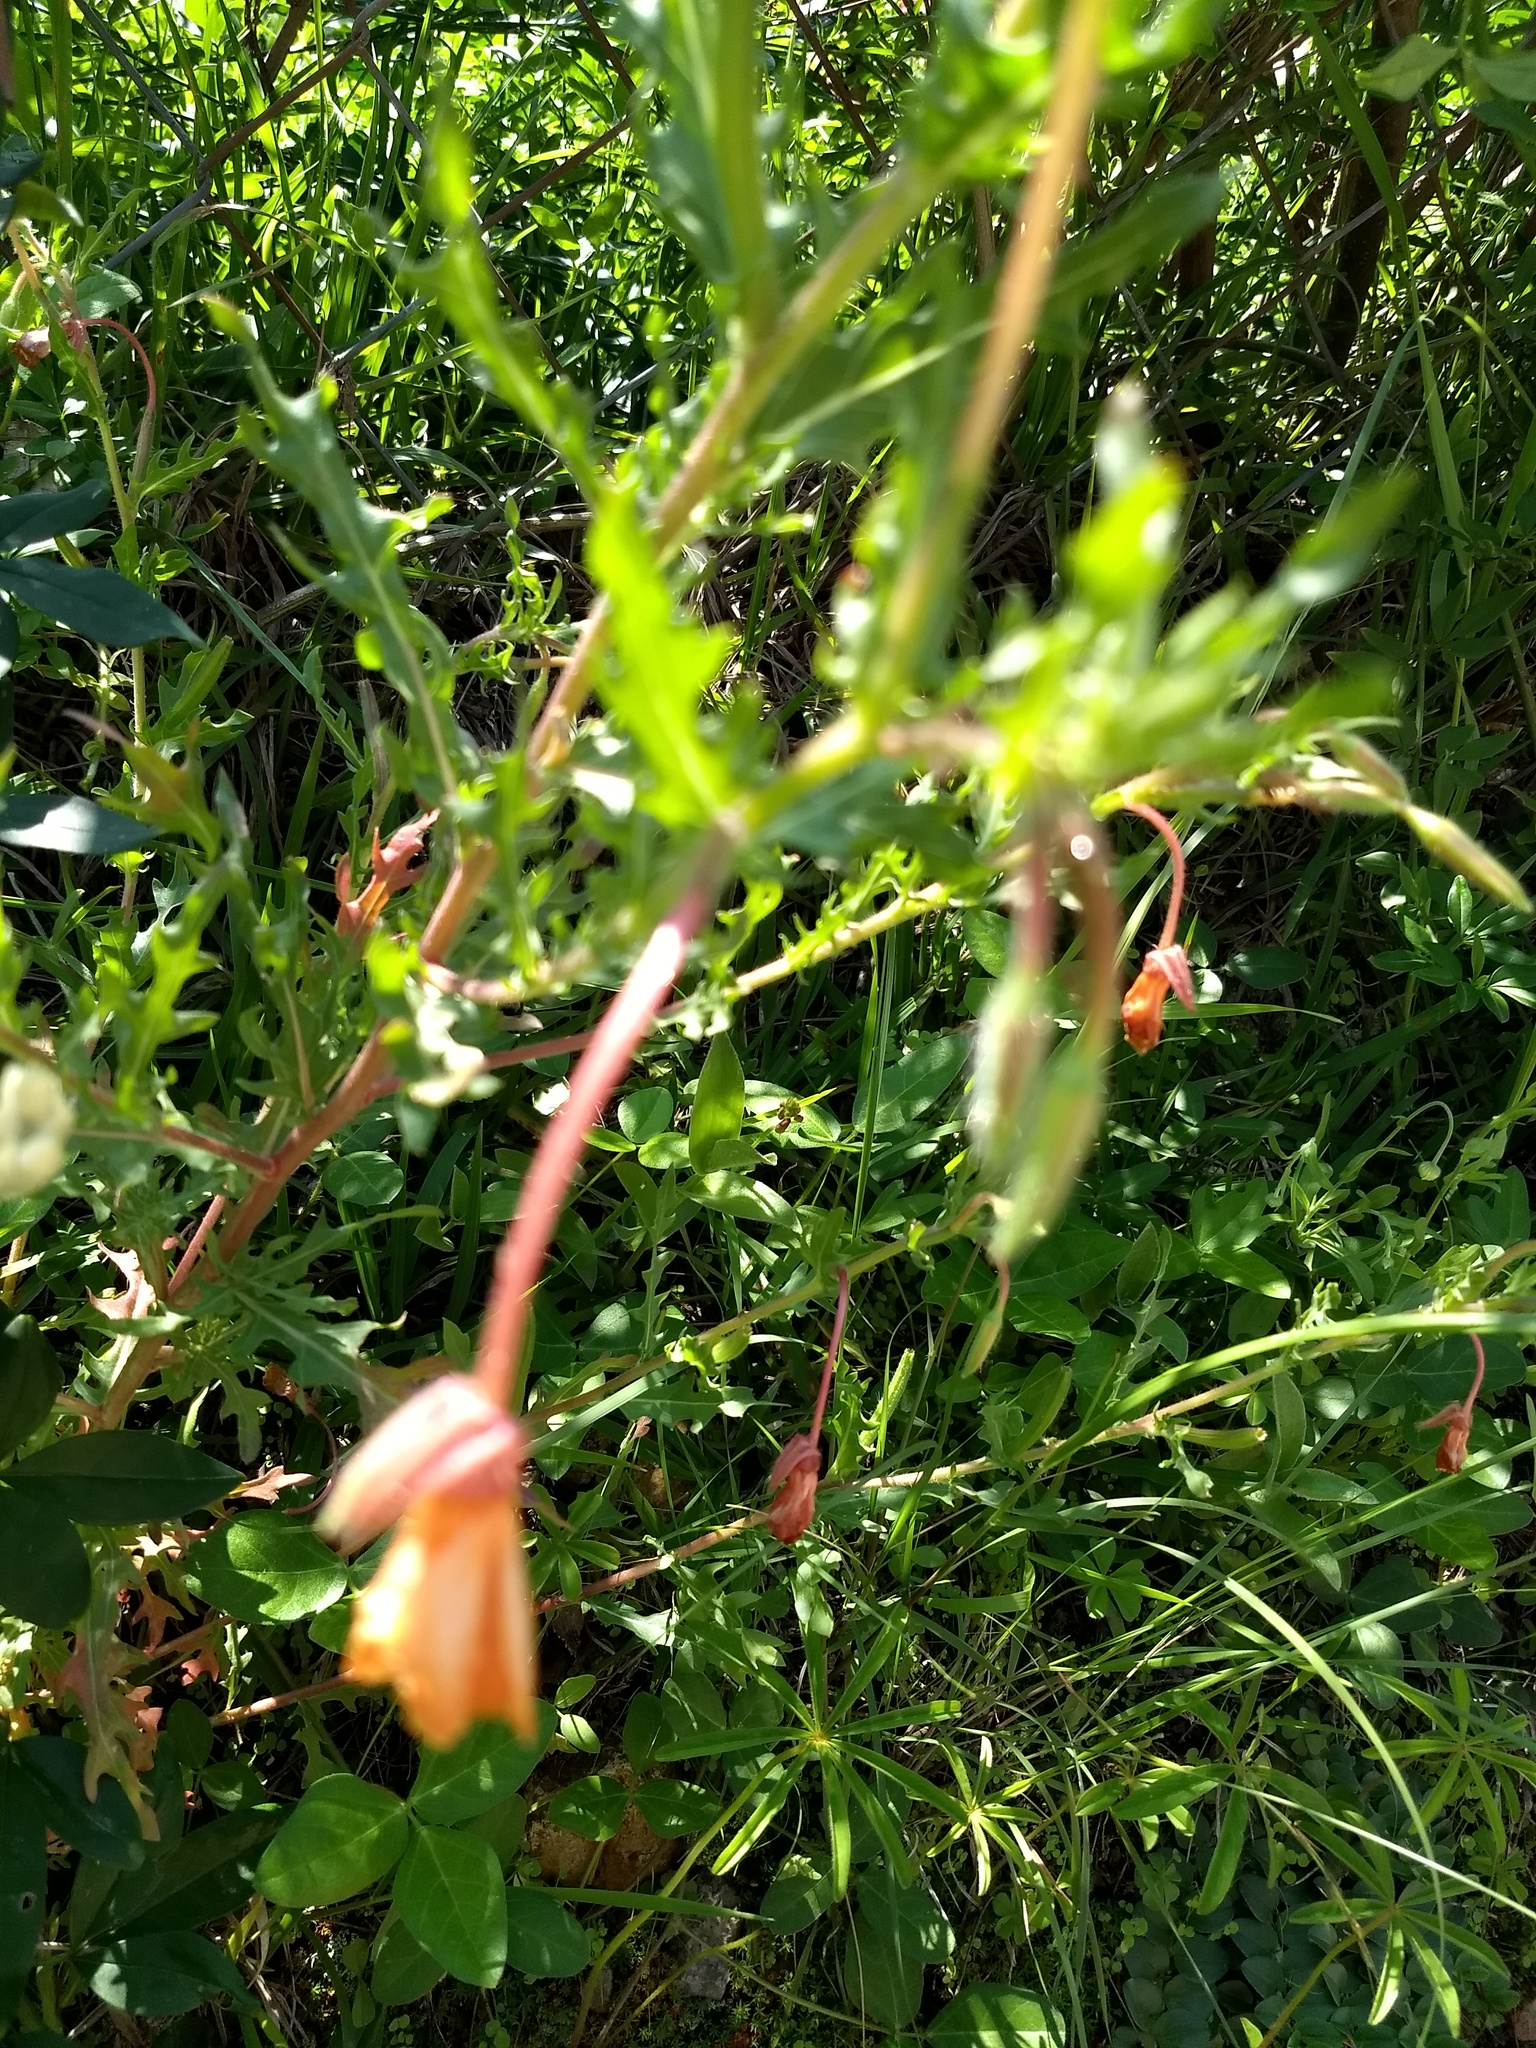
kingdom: Plantae
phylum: Tracheophyta
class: Magnoliopsida
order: Myrtales
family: Onagraceae
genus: Oenothera
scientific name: Oenothera hartwegii
